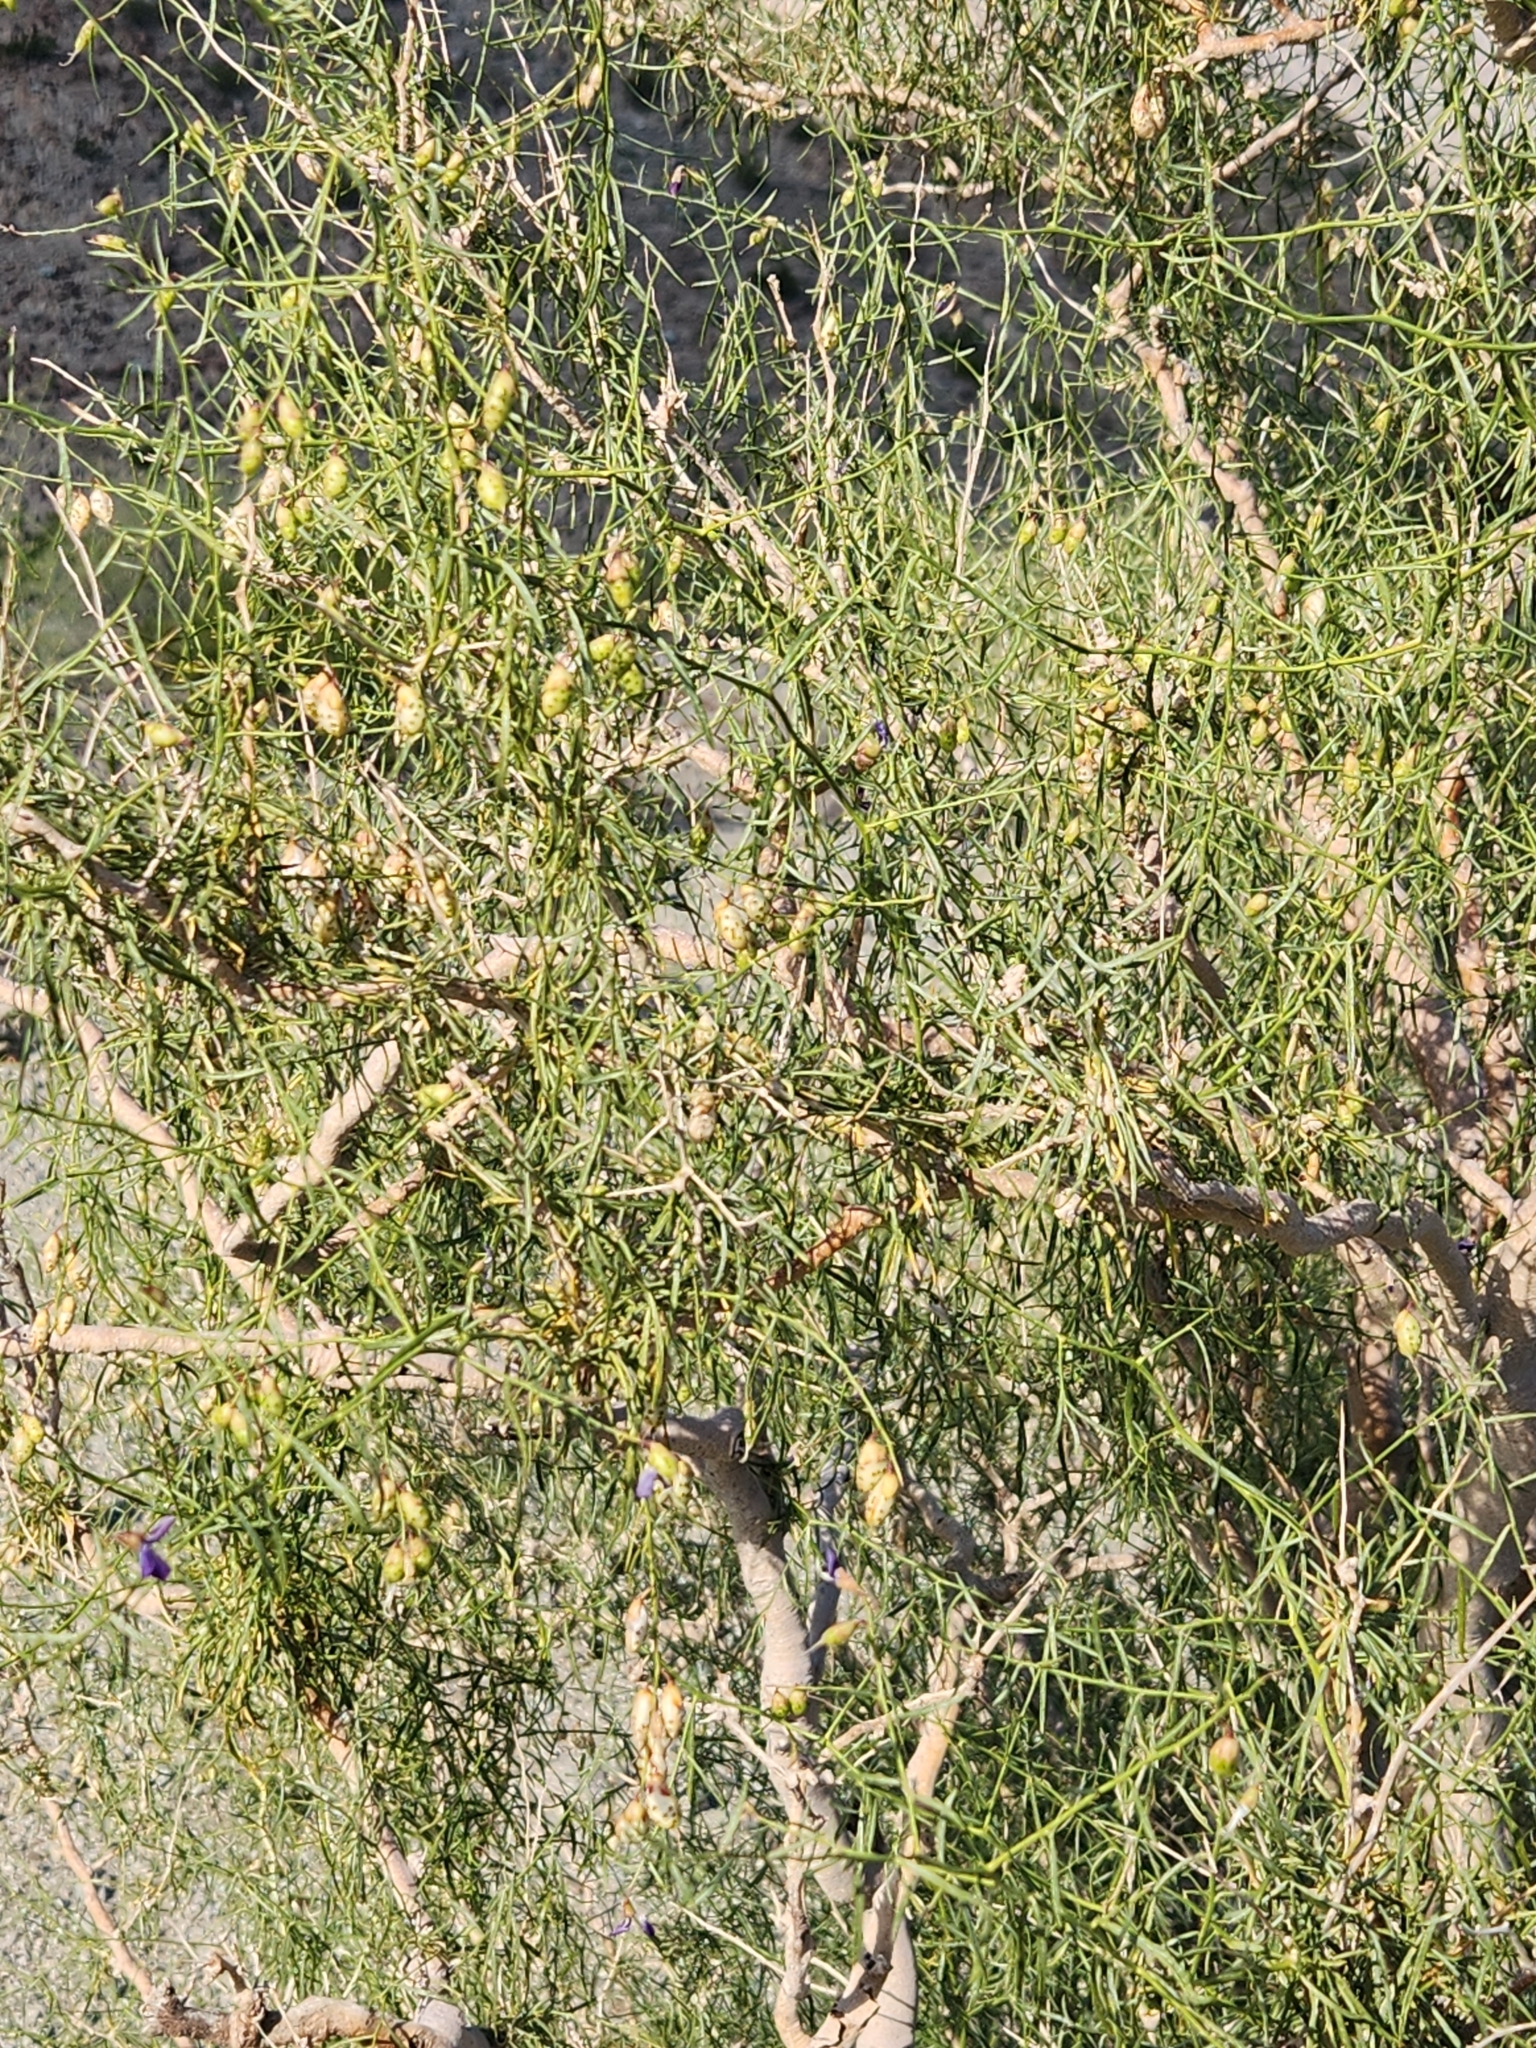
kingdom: Plantae
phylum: Tracheophyta
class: Magnoliopsida
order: Fabales
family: Fabaceae
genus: Psorothamnus
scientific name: Psorothamnus schottii
